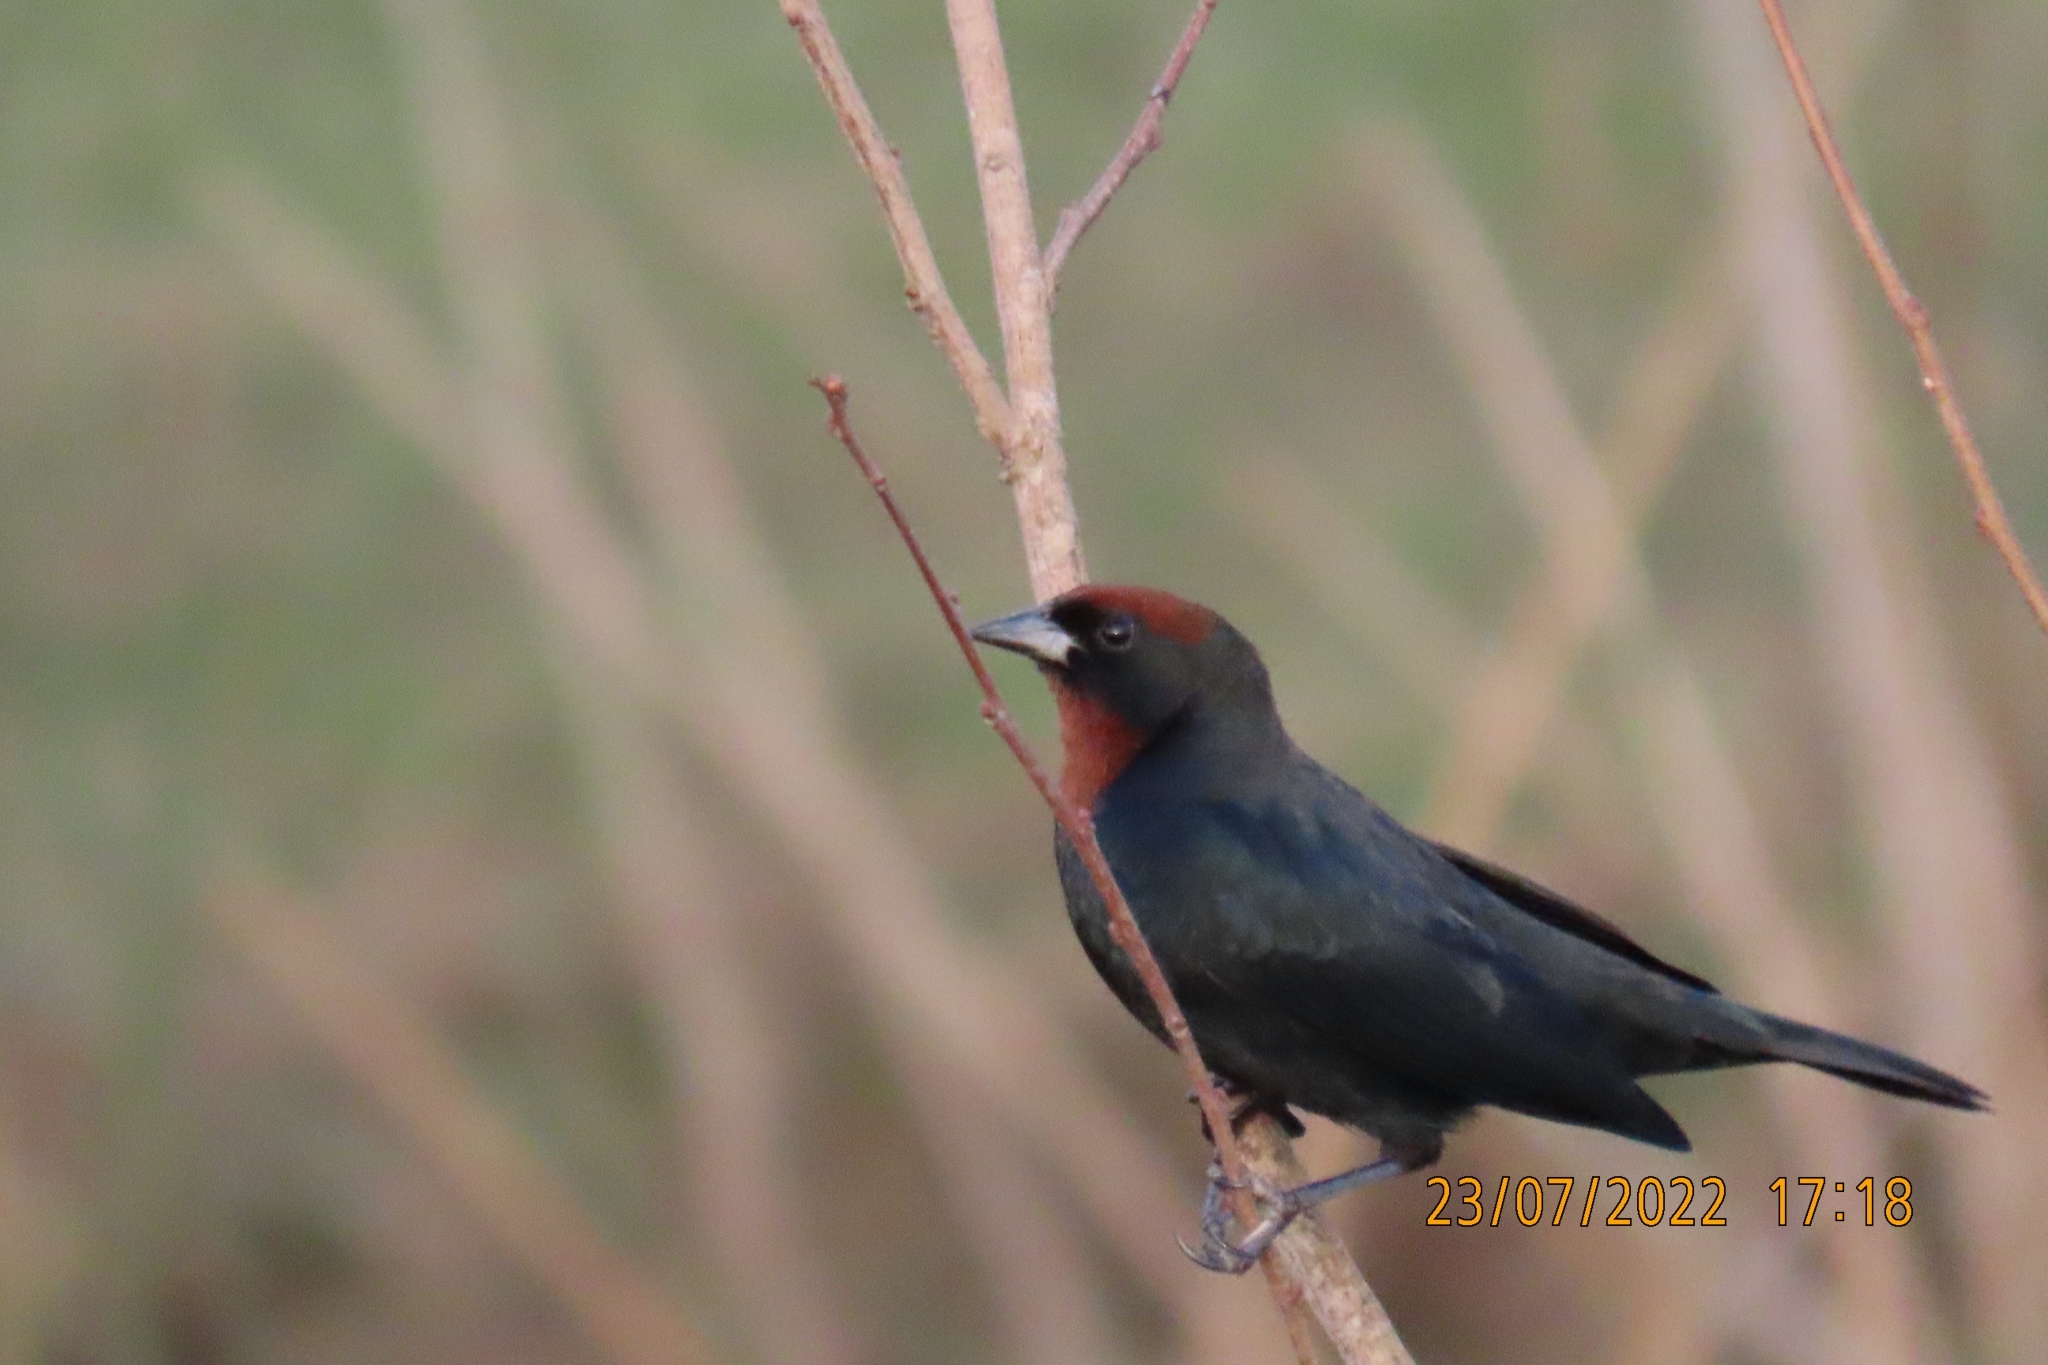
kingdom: Animalia
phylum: Chordata
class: Aves
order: Passeriformes
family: Icteridae
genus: Chrysomus
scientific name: Chrysomus ruficapillus
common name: Chestnut-capped blackbird
